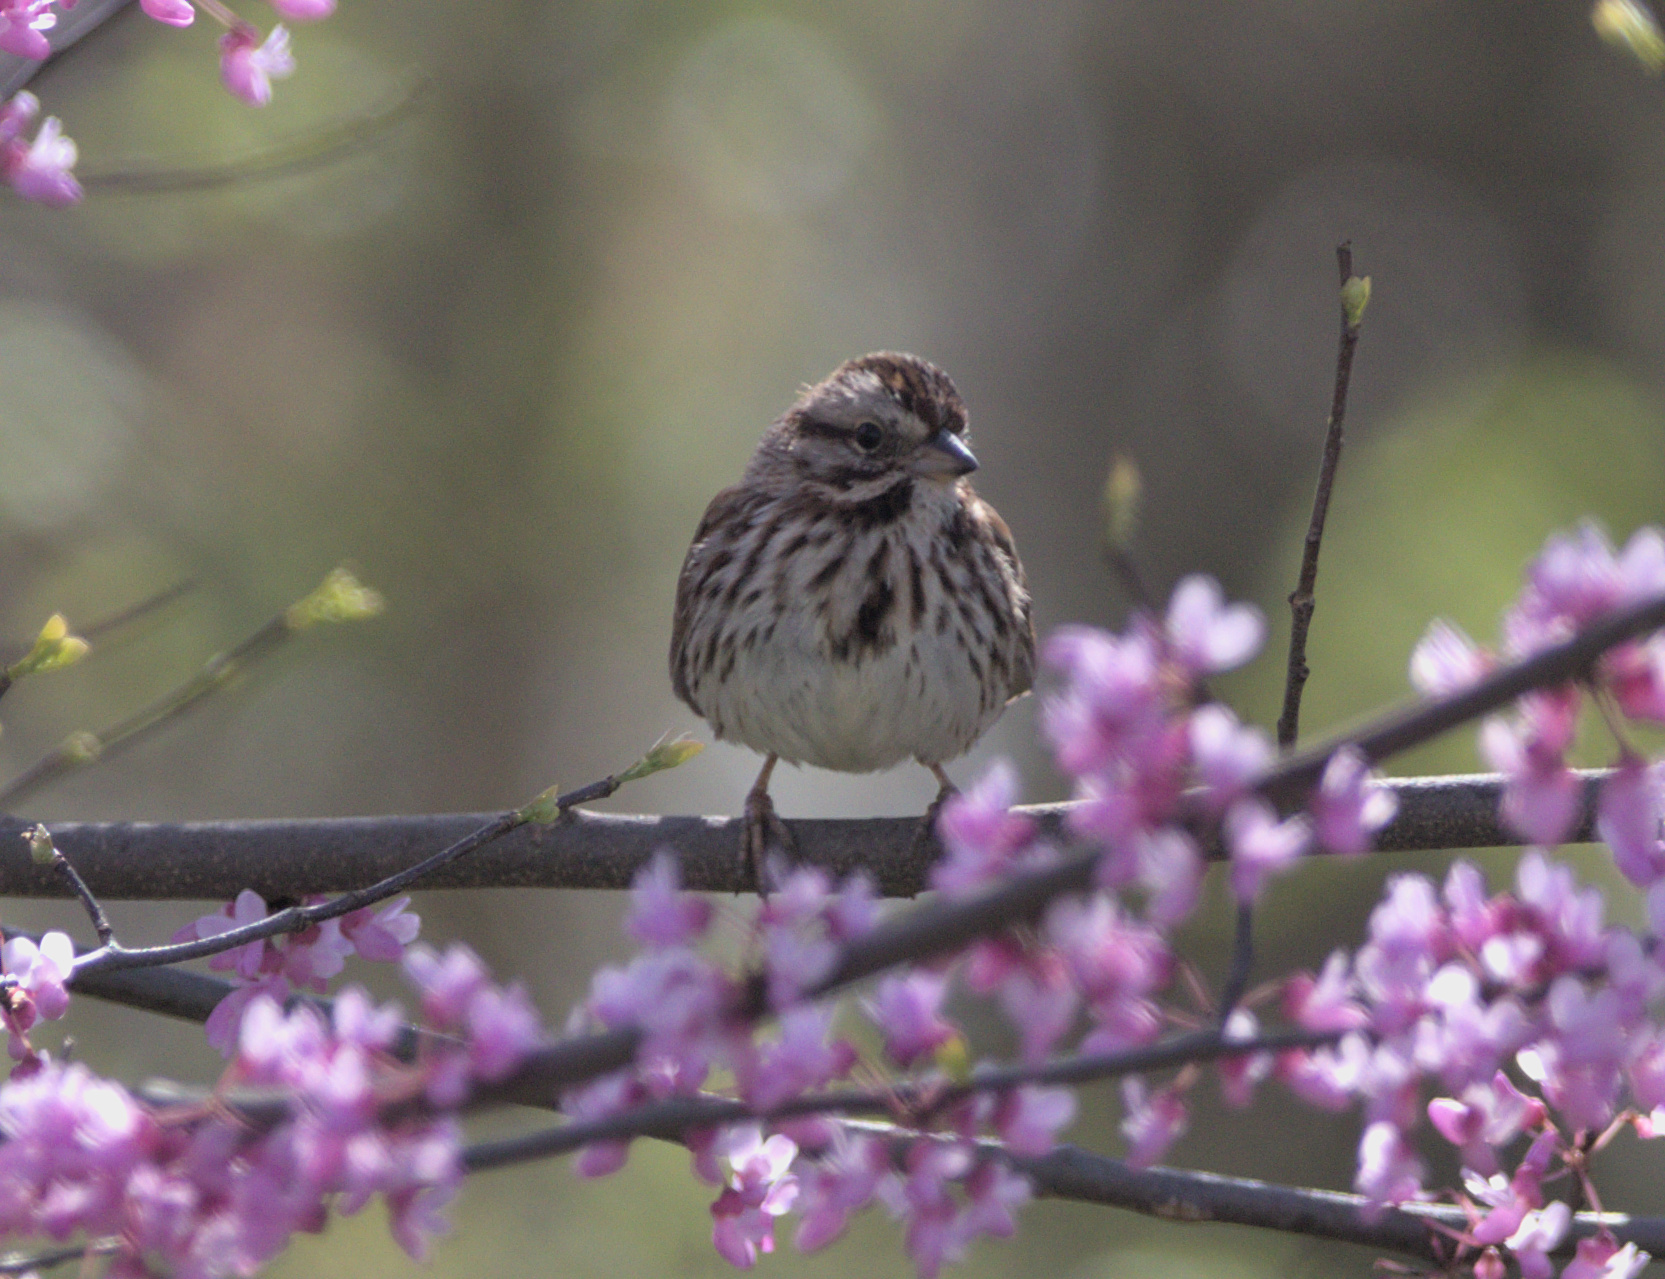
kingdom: Animalia
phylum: Chordata
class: Aves
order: Passeriformes
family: Passerellidae
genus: Melospiza
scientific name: Melospiza melodia
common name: Song sparrow
